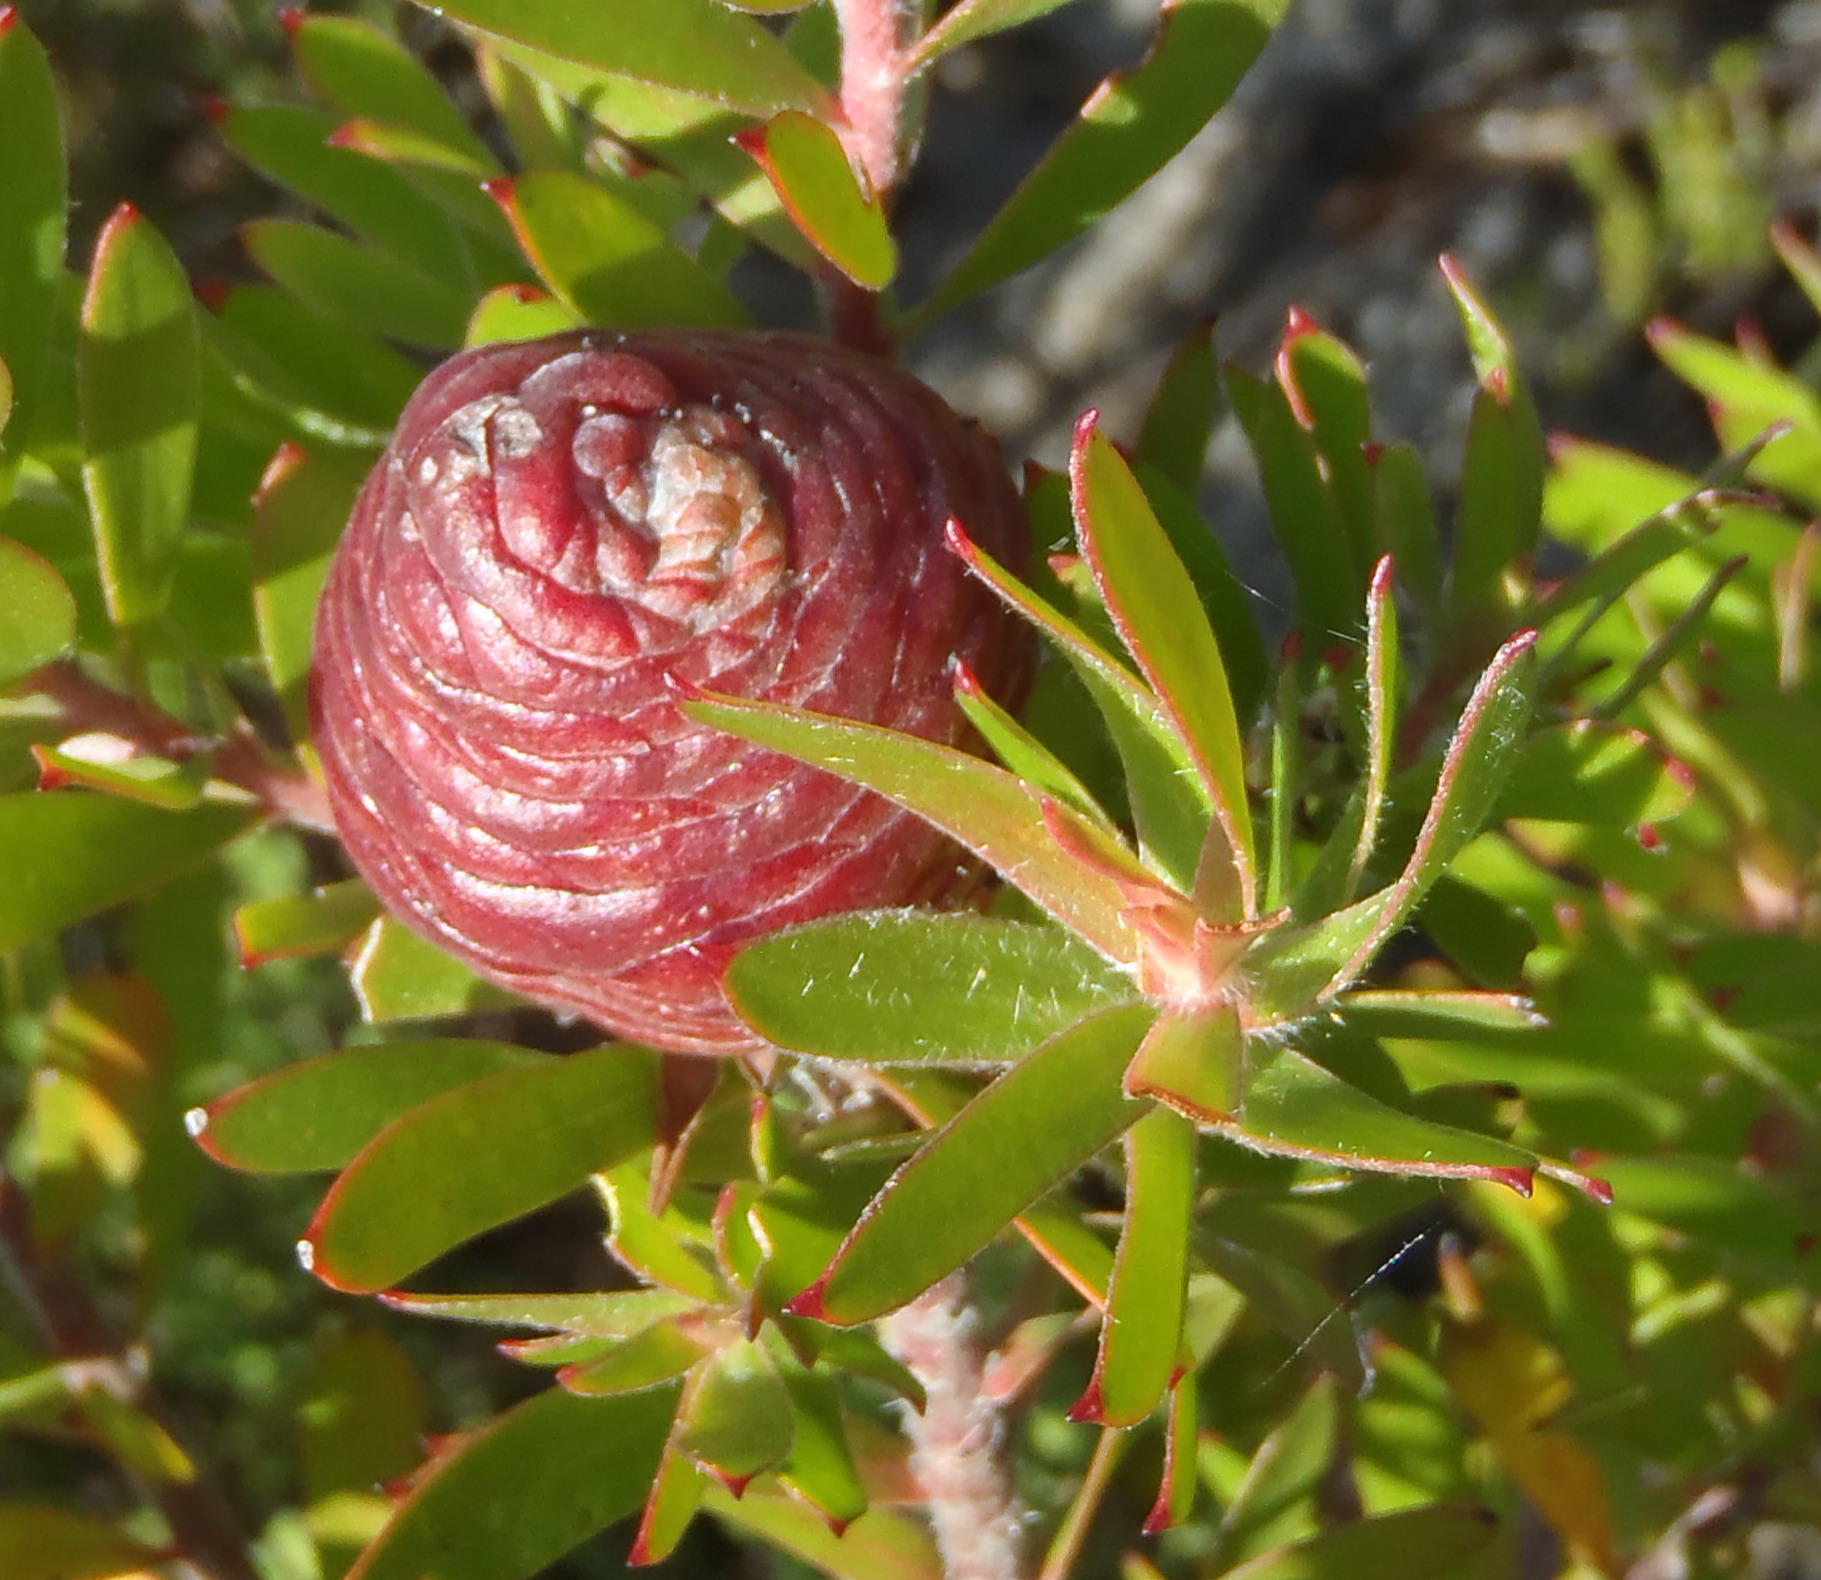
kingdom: Plantae
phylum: Tracheophyta
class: Magnoliopsida
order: Proteales
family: Proteaceae
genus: Leucadendron
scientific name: Leucadendron conicum
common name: Garden route conebush
